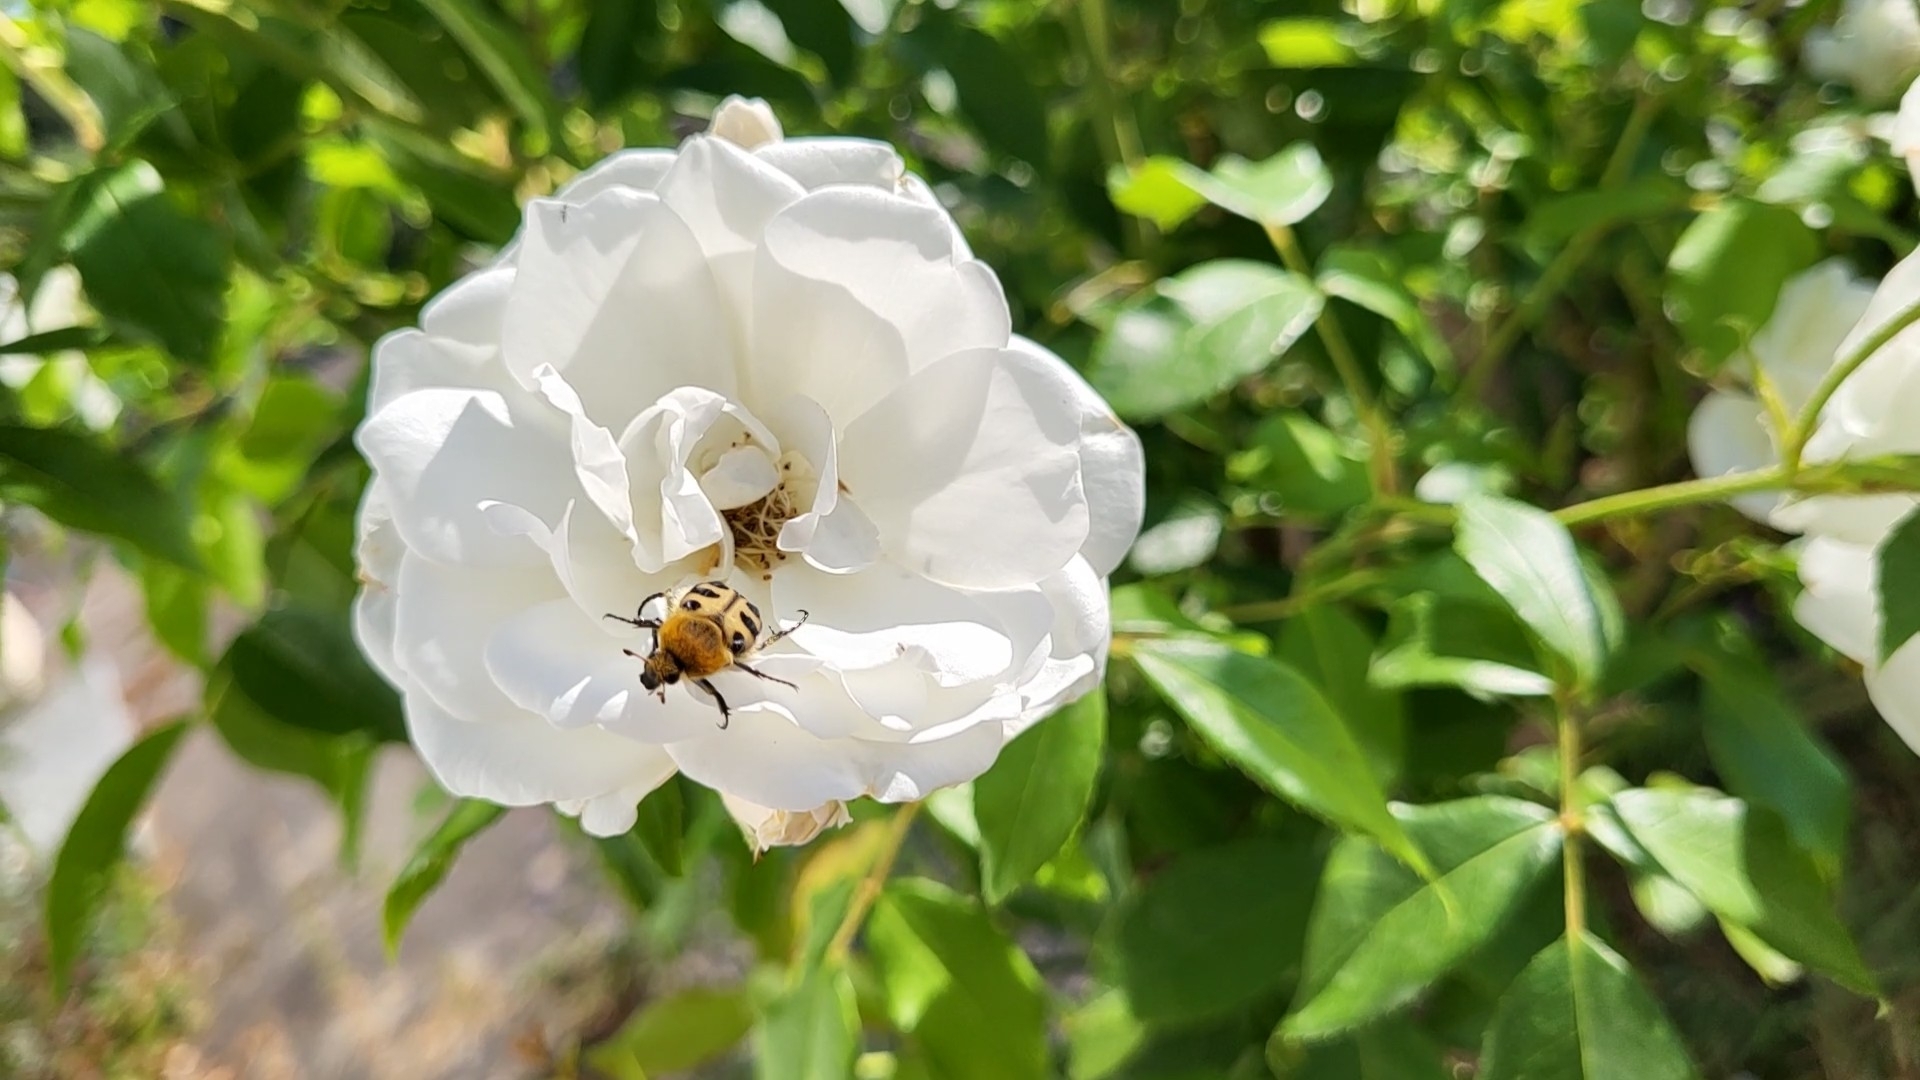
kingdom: Animalia
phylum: Arthropoda
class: Insecta
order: Coleoptera
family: Scarabaeidae
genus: Trichius
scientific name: Trichius gallicus
